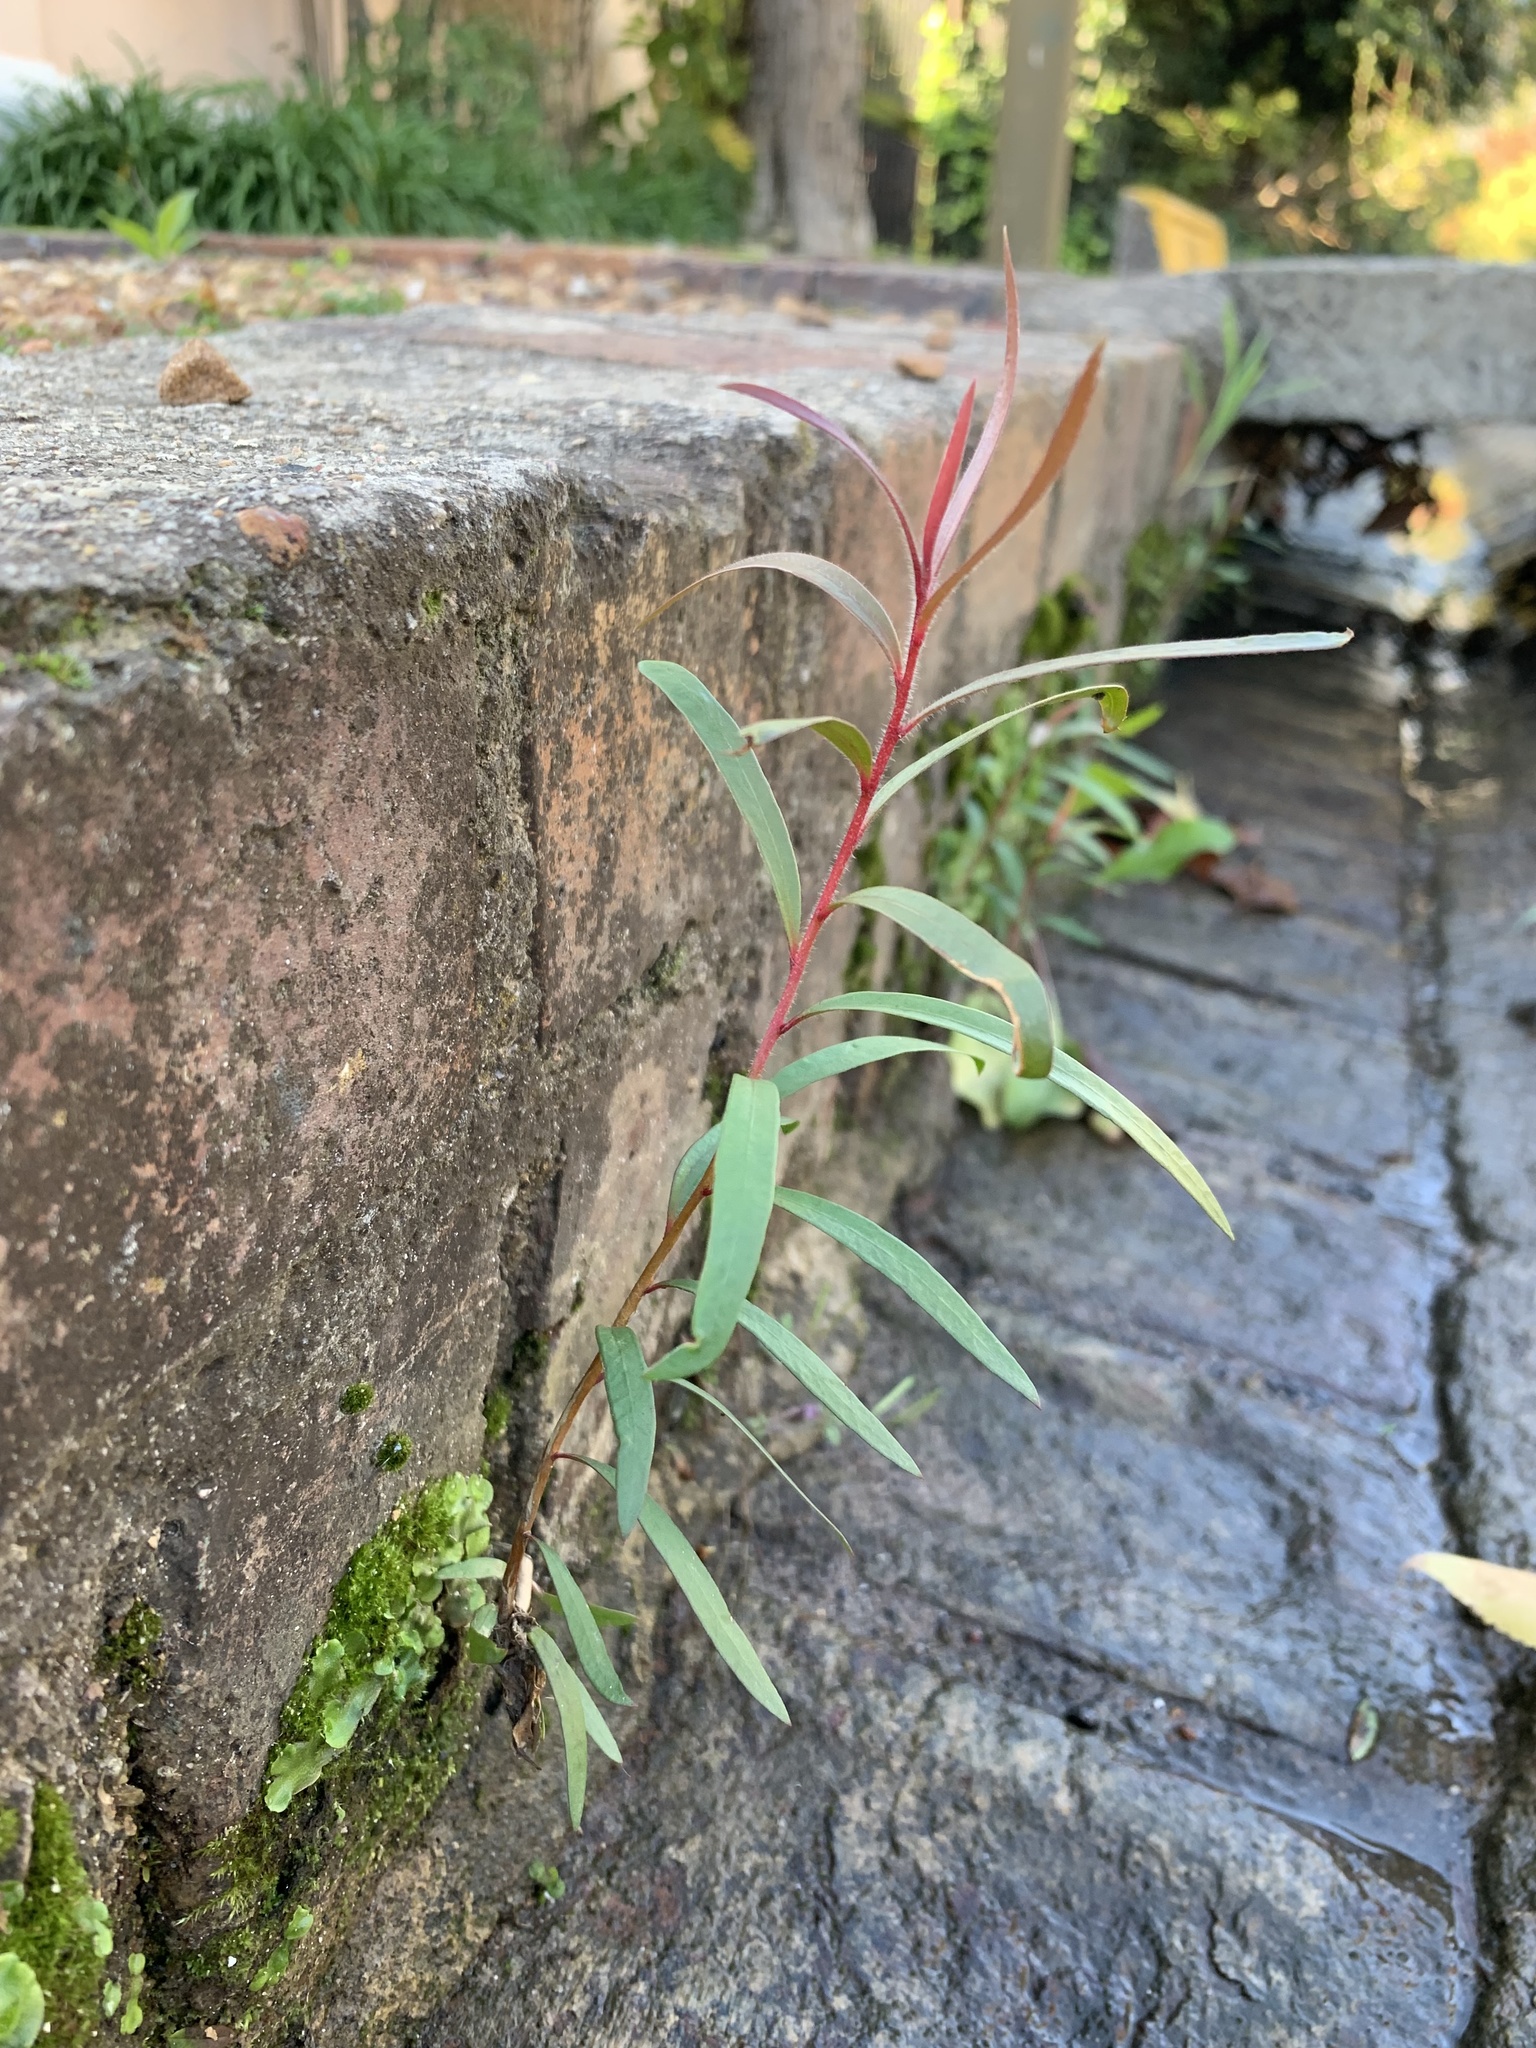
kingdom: Plantae
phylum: Tracheophyta
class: Magnoliopsida
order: Myrtales
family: Myrtaceae
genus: Callistemon
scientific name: Callistemon viminalis
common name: Drooping bottlebrush
